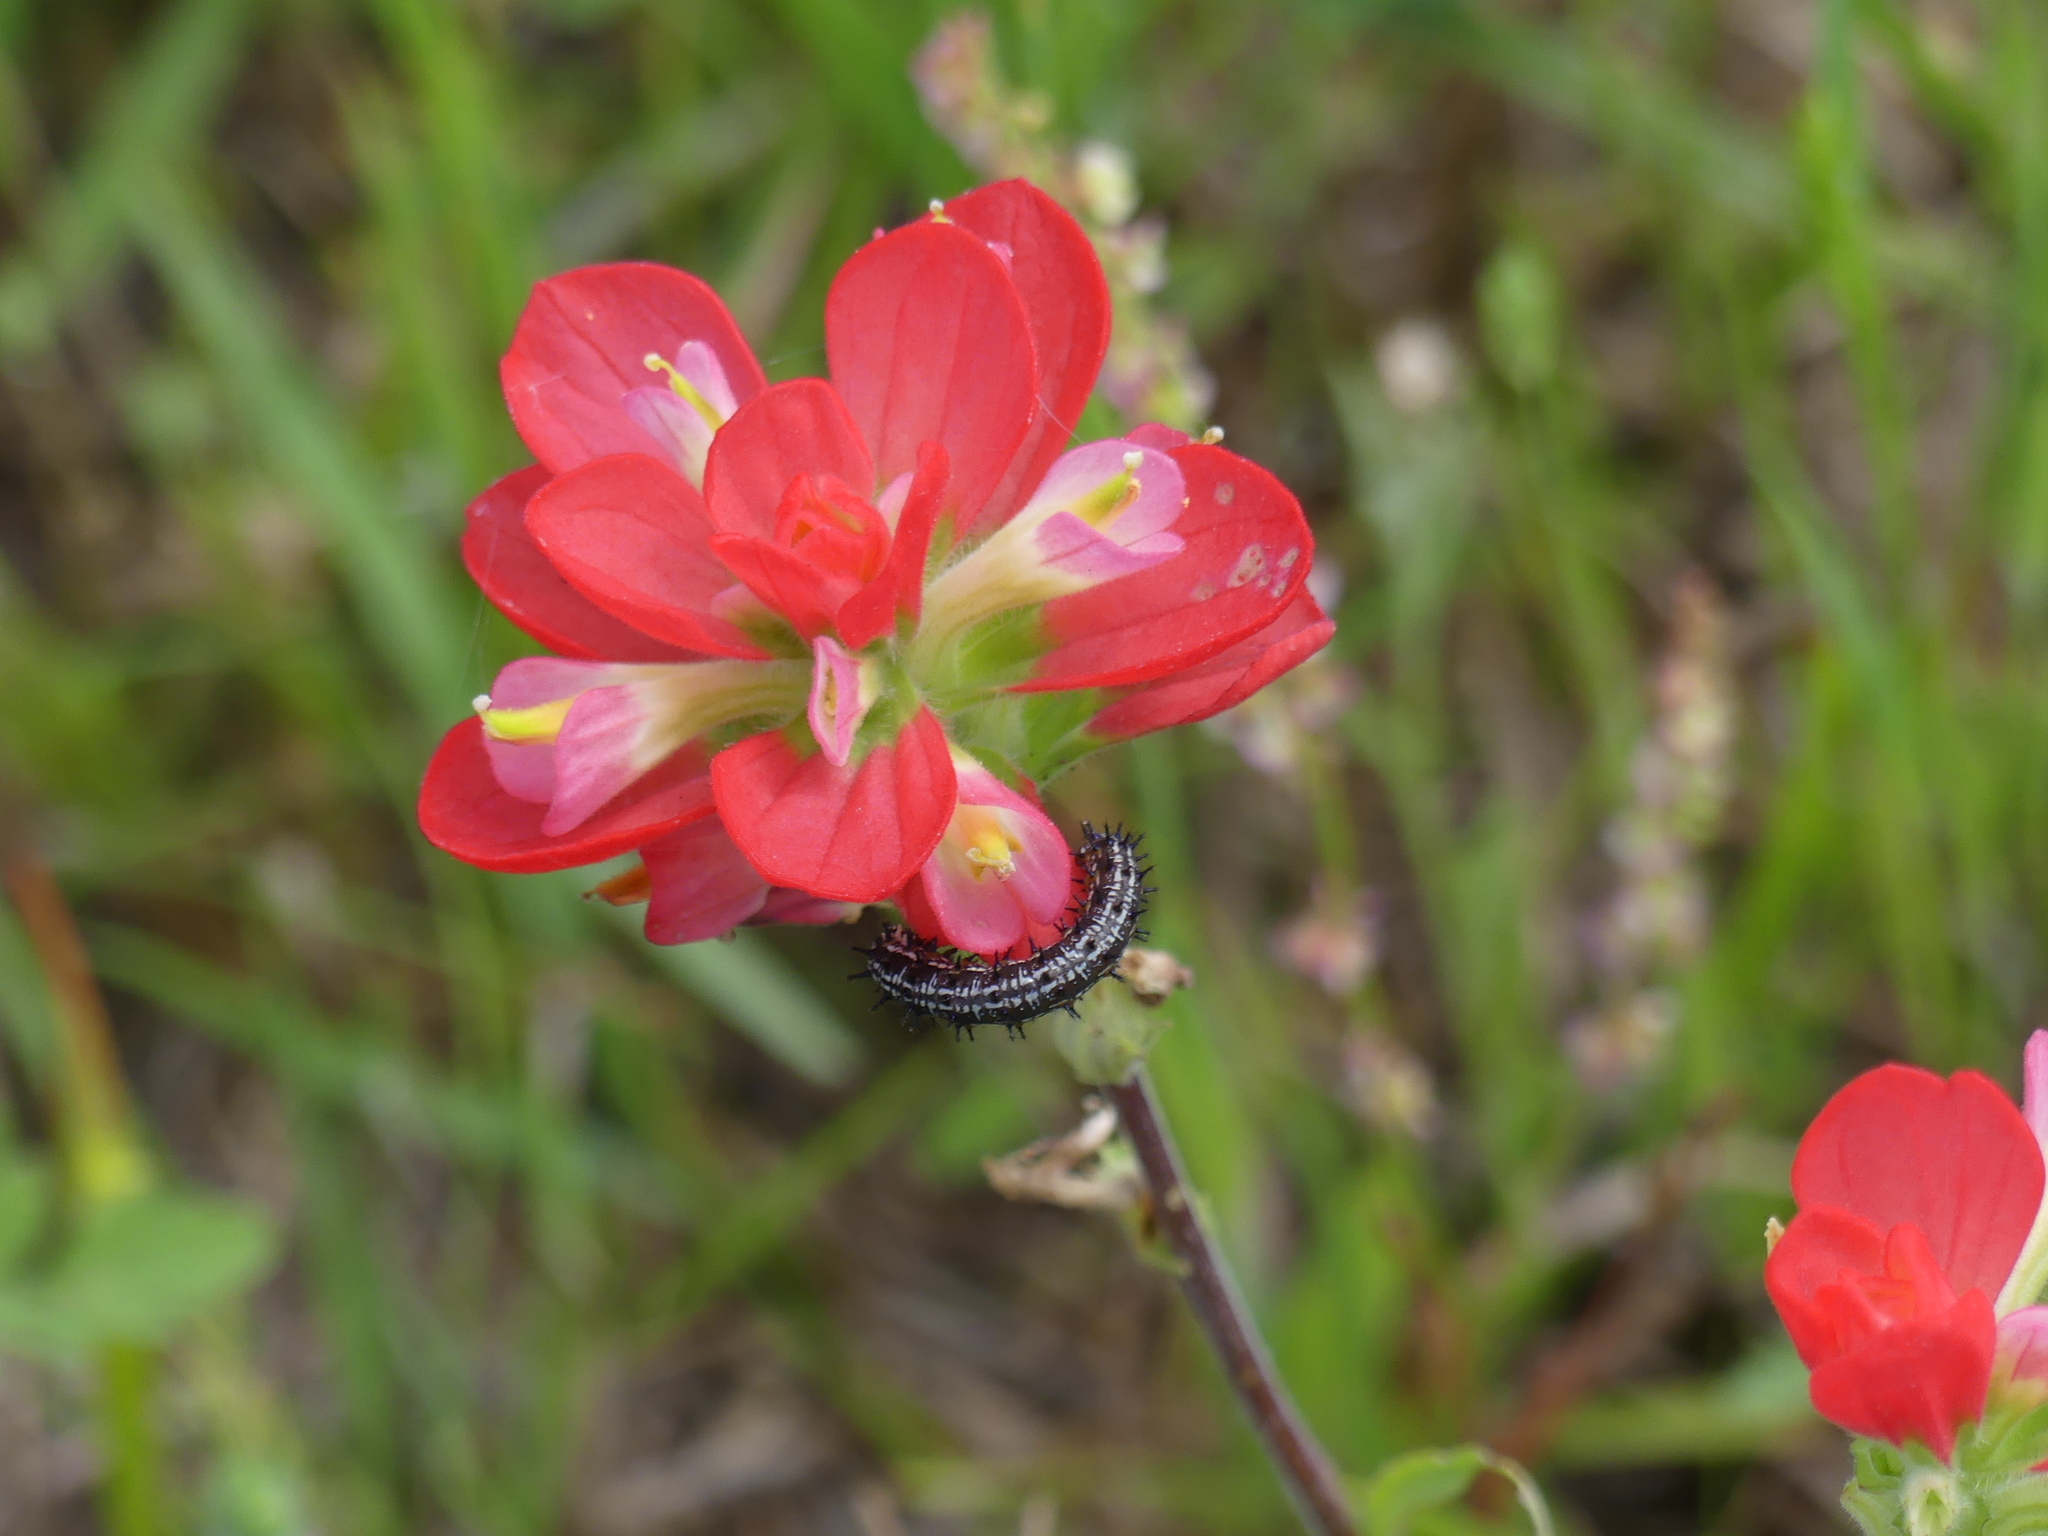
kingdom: Animalia
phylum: Arthropoda
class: Insecta
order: Lepidoptera
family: Nymphalidae
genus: Junonia
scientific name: Junonia coenia
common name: Common buckeye
